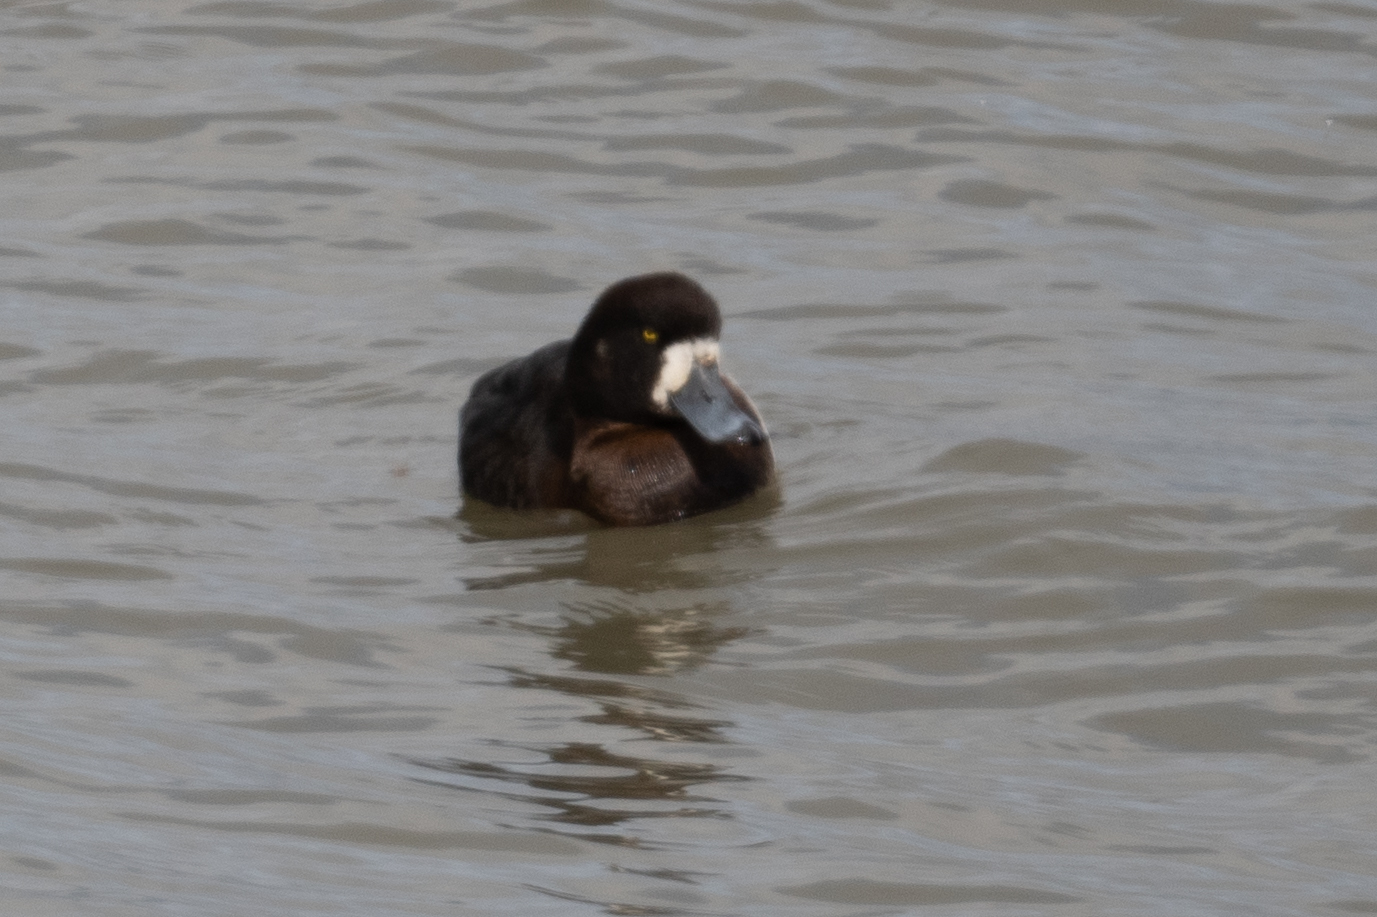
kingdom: Animalia
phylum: Chordata
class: Aves
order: Anseriformes
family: Anatidae
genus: Aythya
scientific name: Aythya marila
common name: Greater scaup
